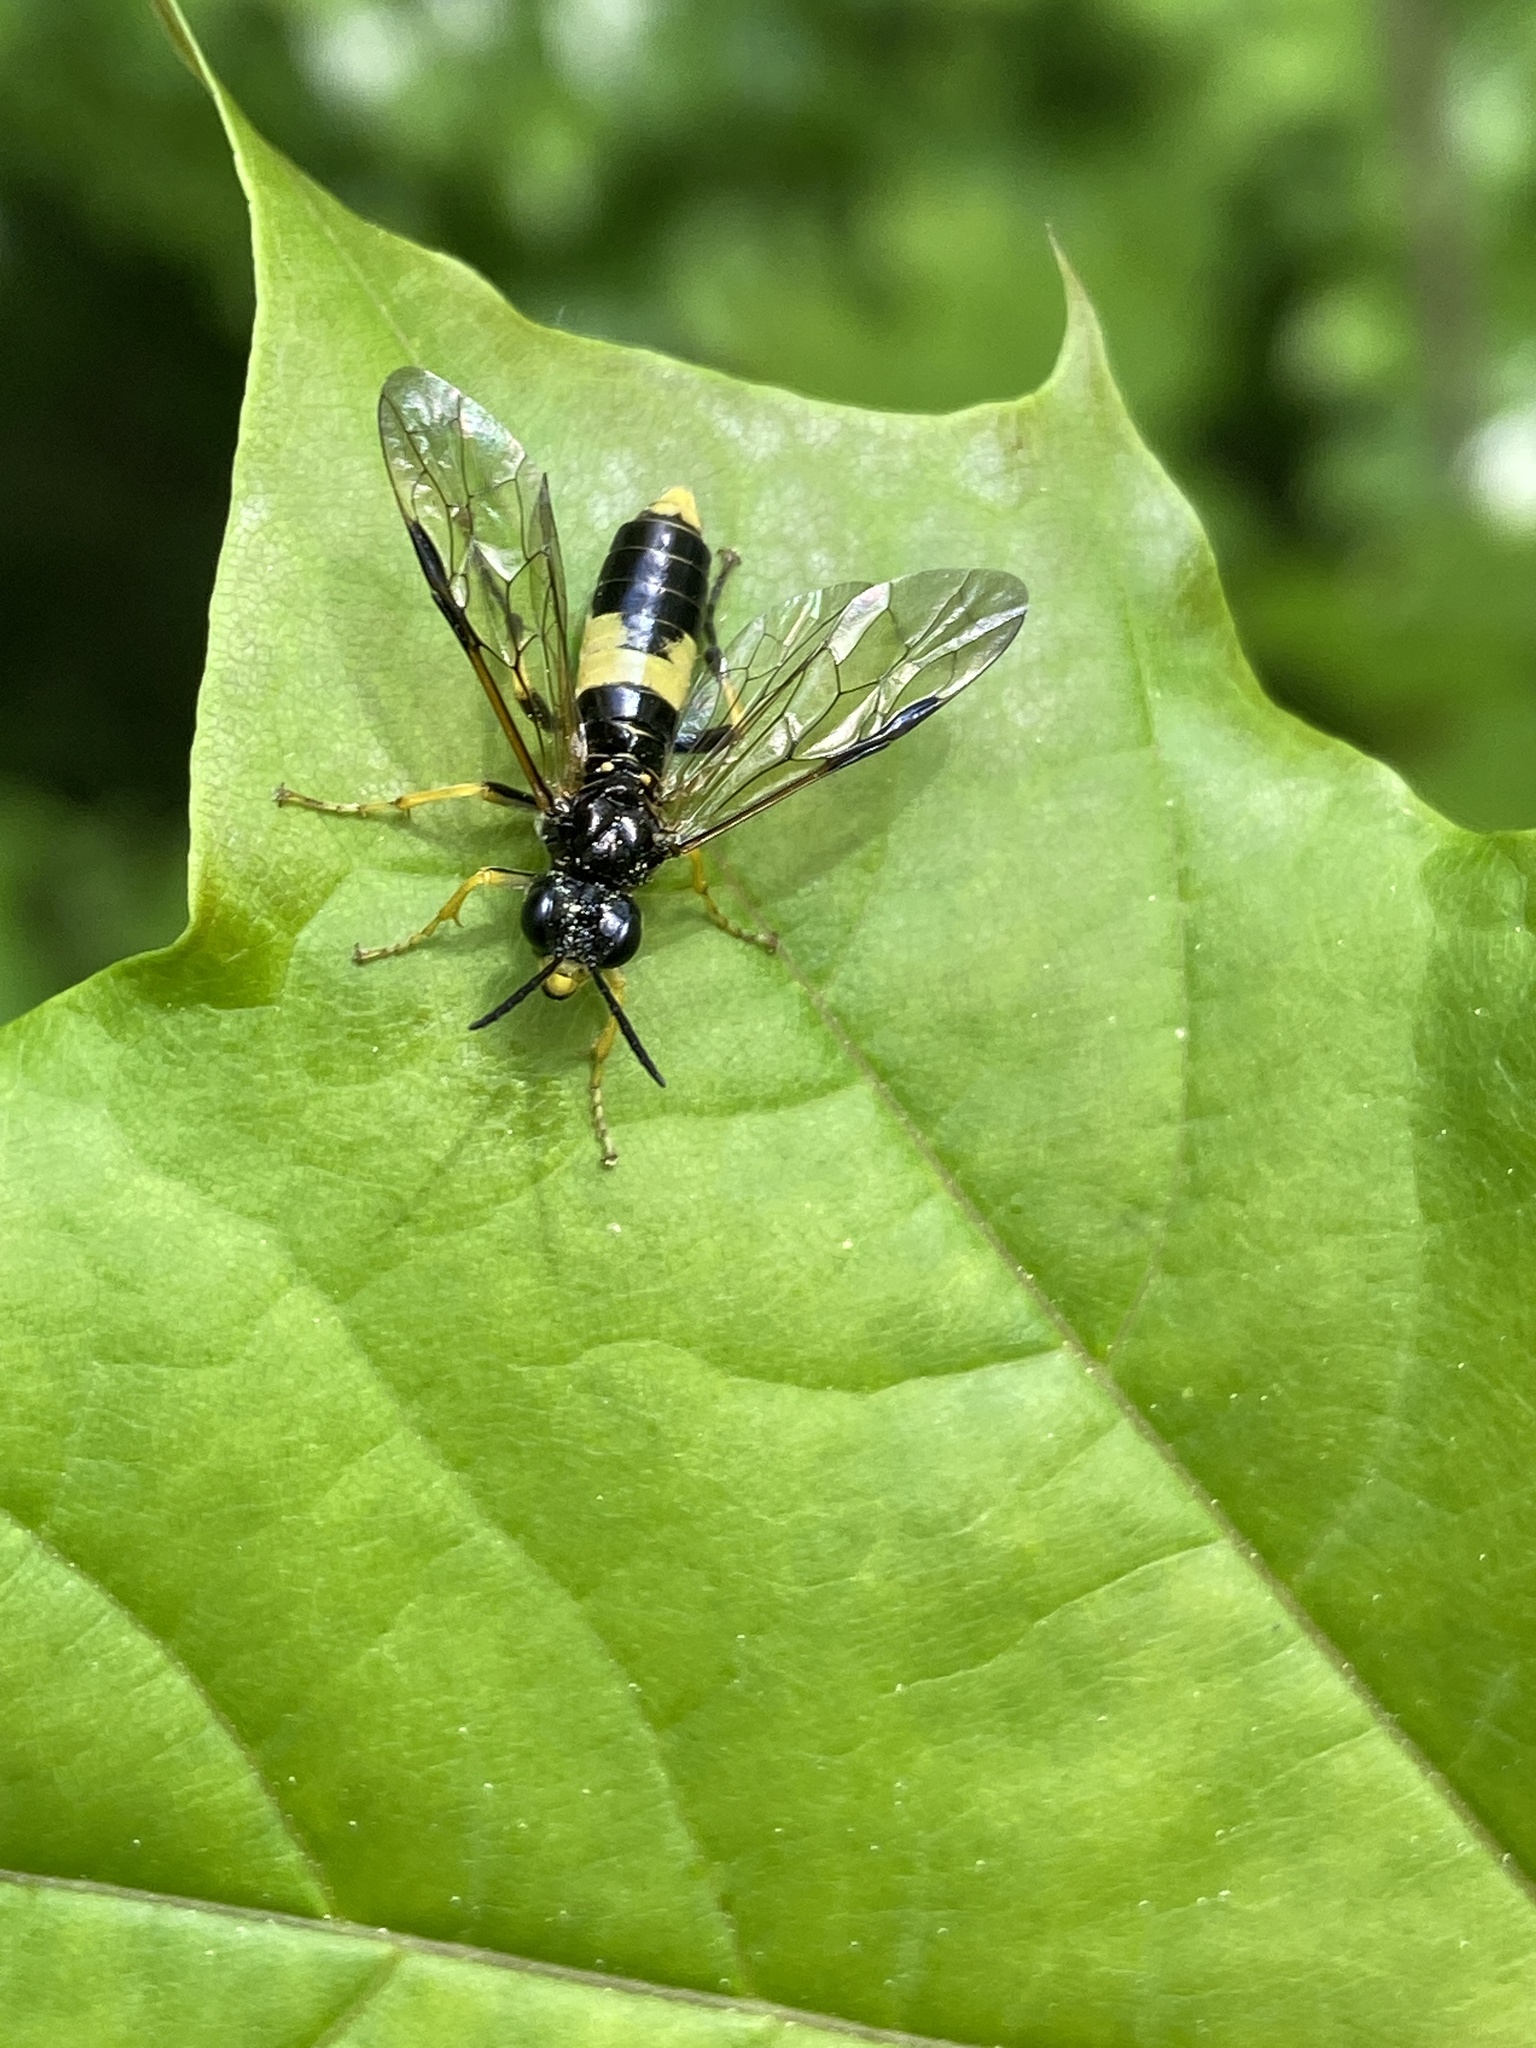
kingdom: Animalia
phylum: Arthropoda
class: Insecta
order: Hymenoptera
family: Tenthredinidae
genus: Tenthredo
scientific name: Tenthredo temula
